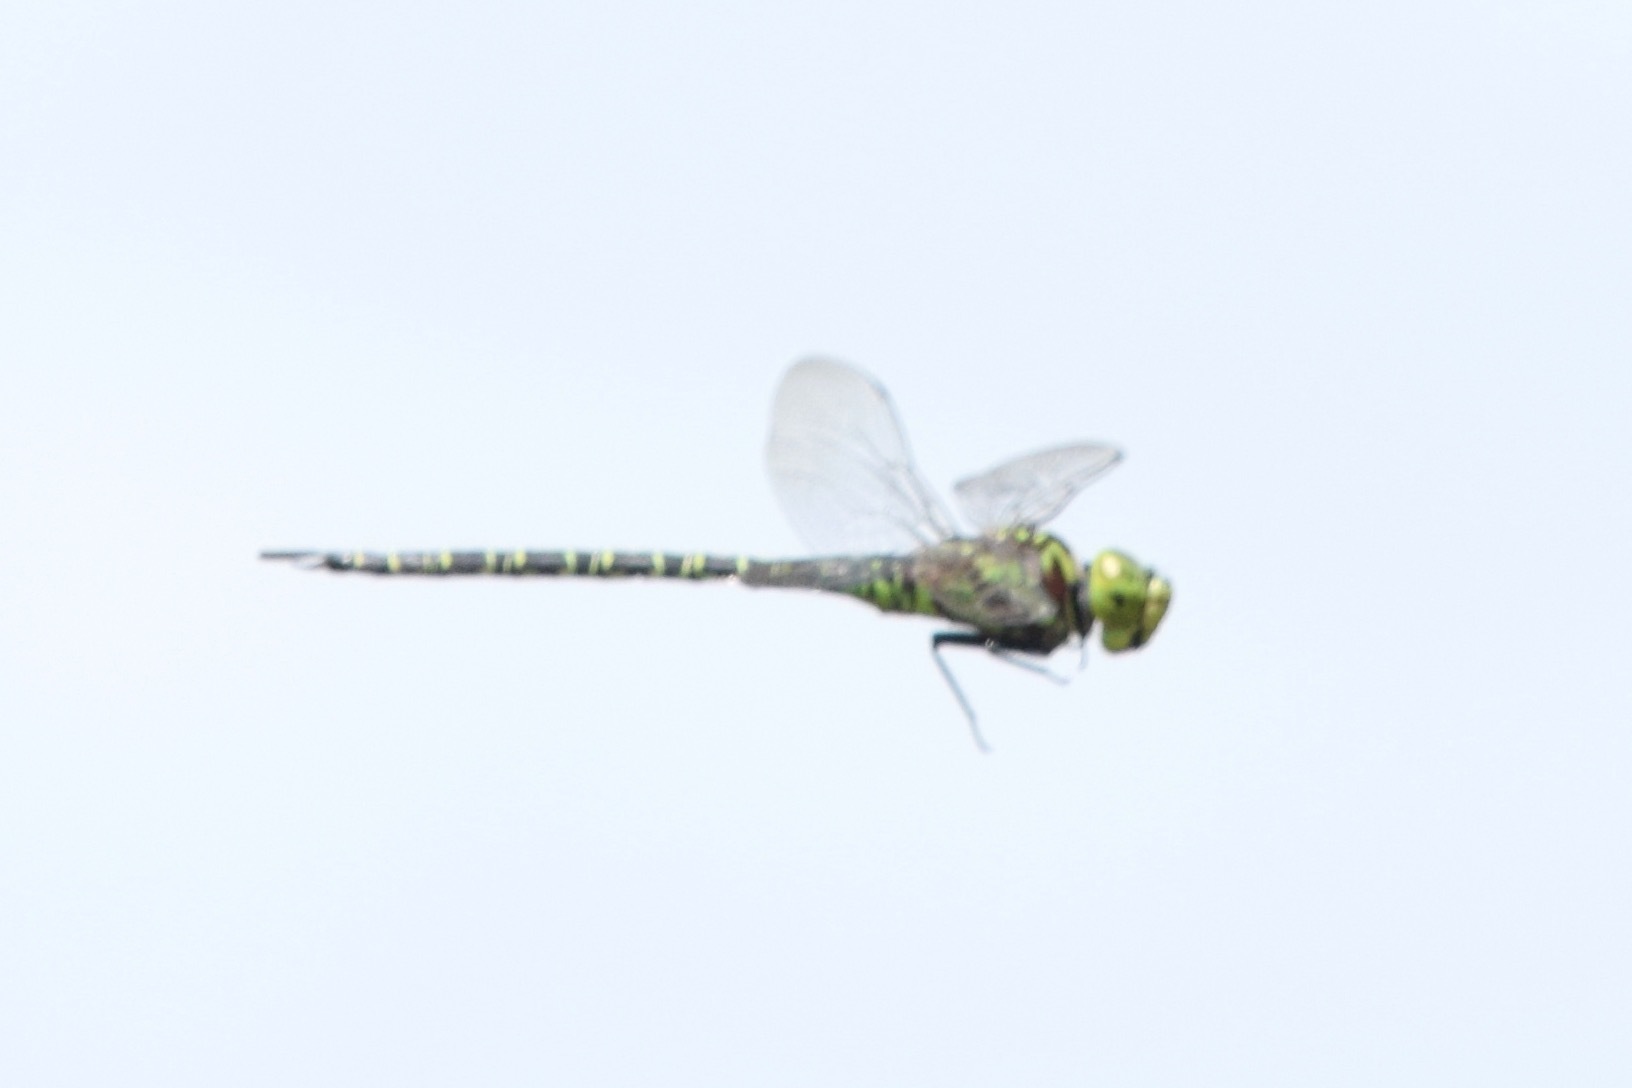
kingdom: Animalia
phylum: Arthropoda
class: Insecta
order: Odonata
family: Aeshnidae
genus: Coryphaeschna
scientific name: Coryphaeschna ingens
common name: Regal darner
